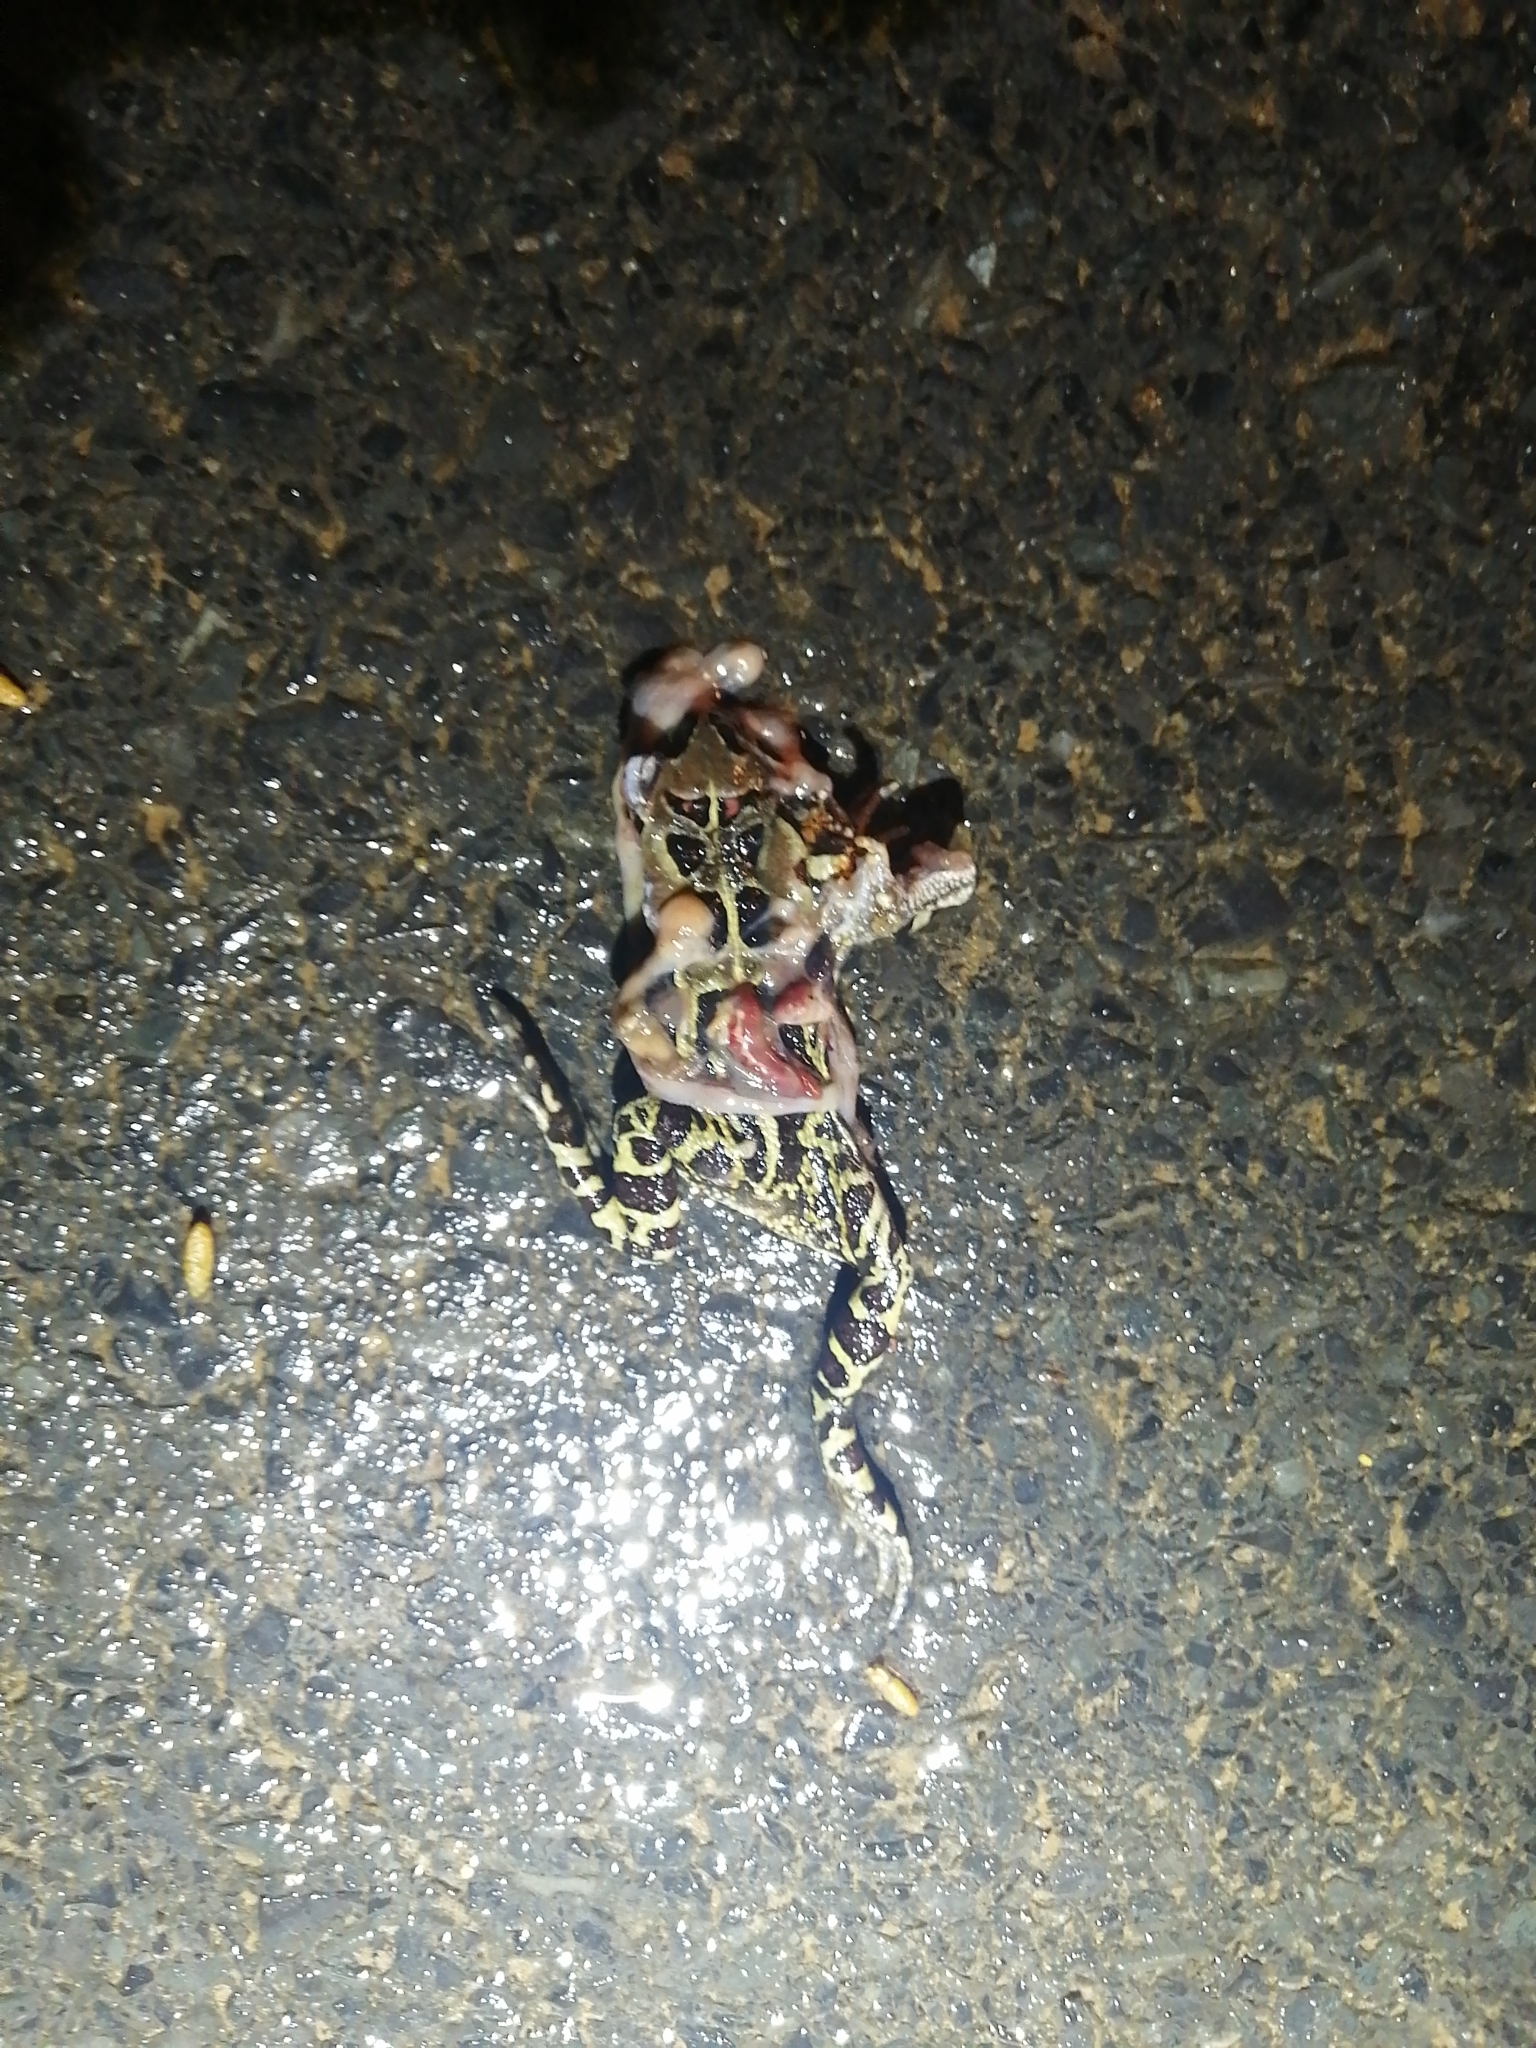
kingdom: Animalia
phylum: Chordata
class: Amphibia
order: Anura
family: Bufonidae
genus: Sclerophrys
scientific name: Sclerophrys pantherina
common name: Panther toad
